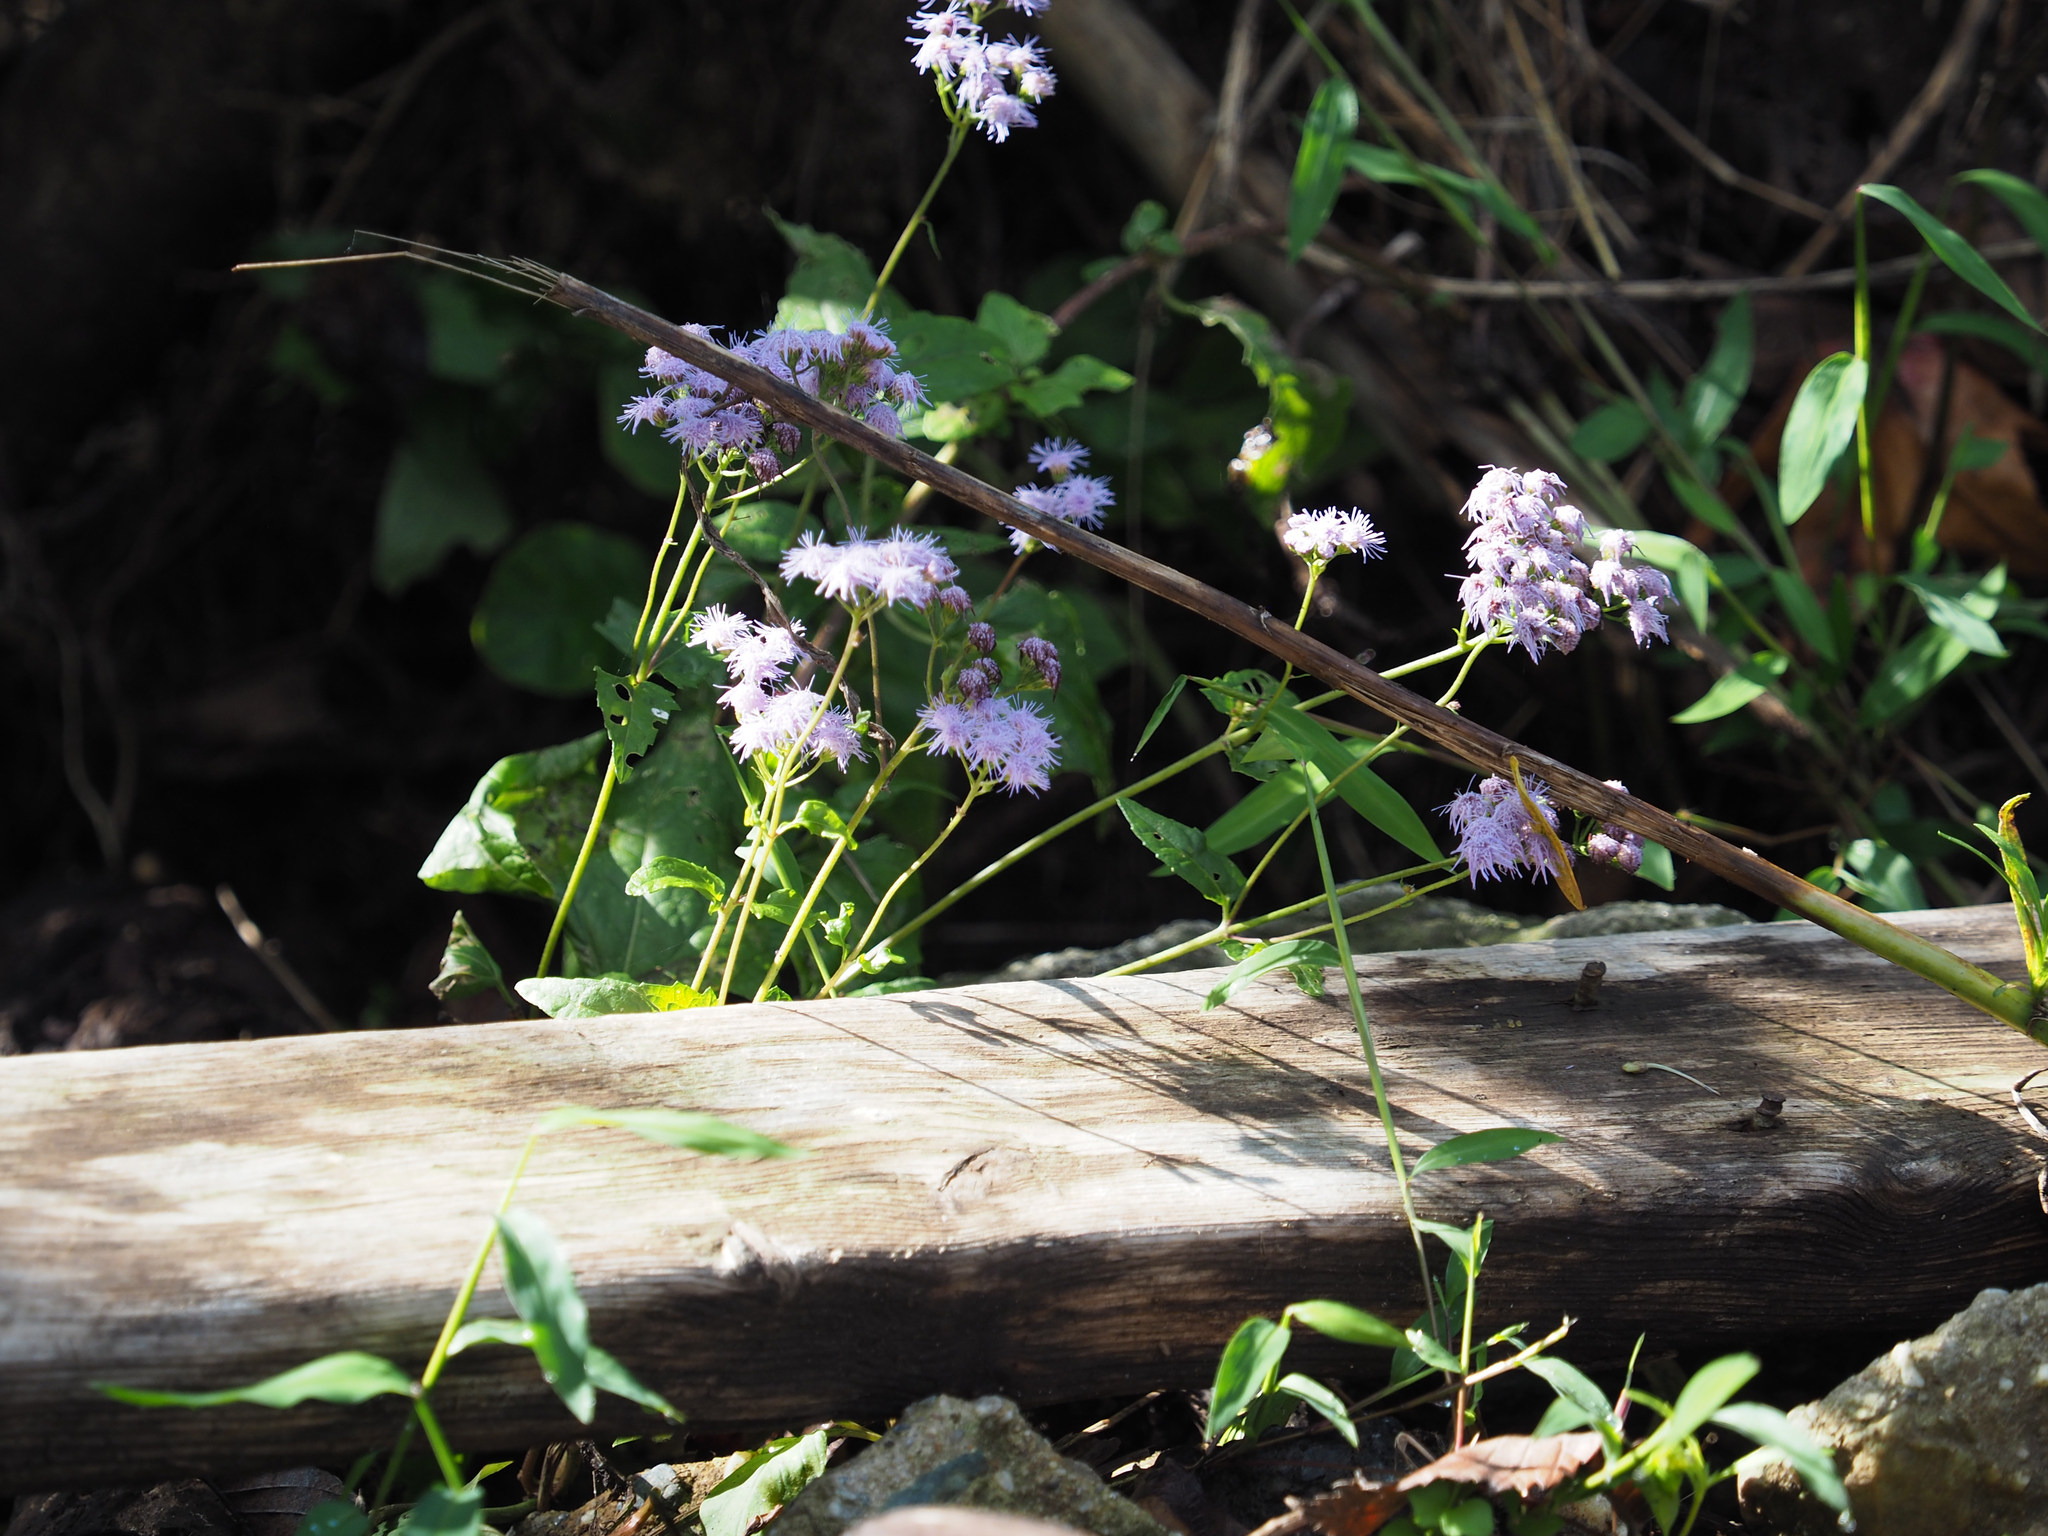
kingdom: Plantae
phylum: Tracheophyta
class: Magnoliopsida
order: Asterales
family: Asteraceae
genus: Conoclinium
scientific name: Conoclinium coelestinum
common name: Blue mistflower
